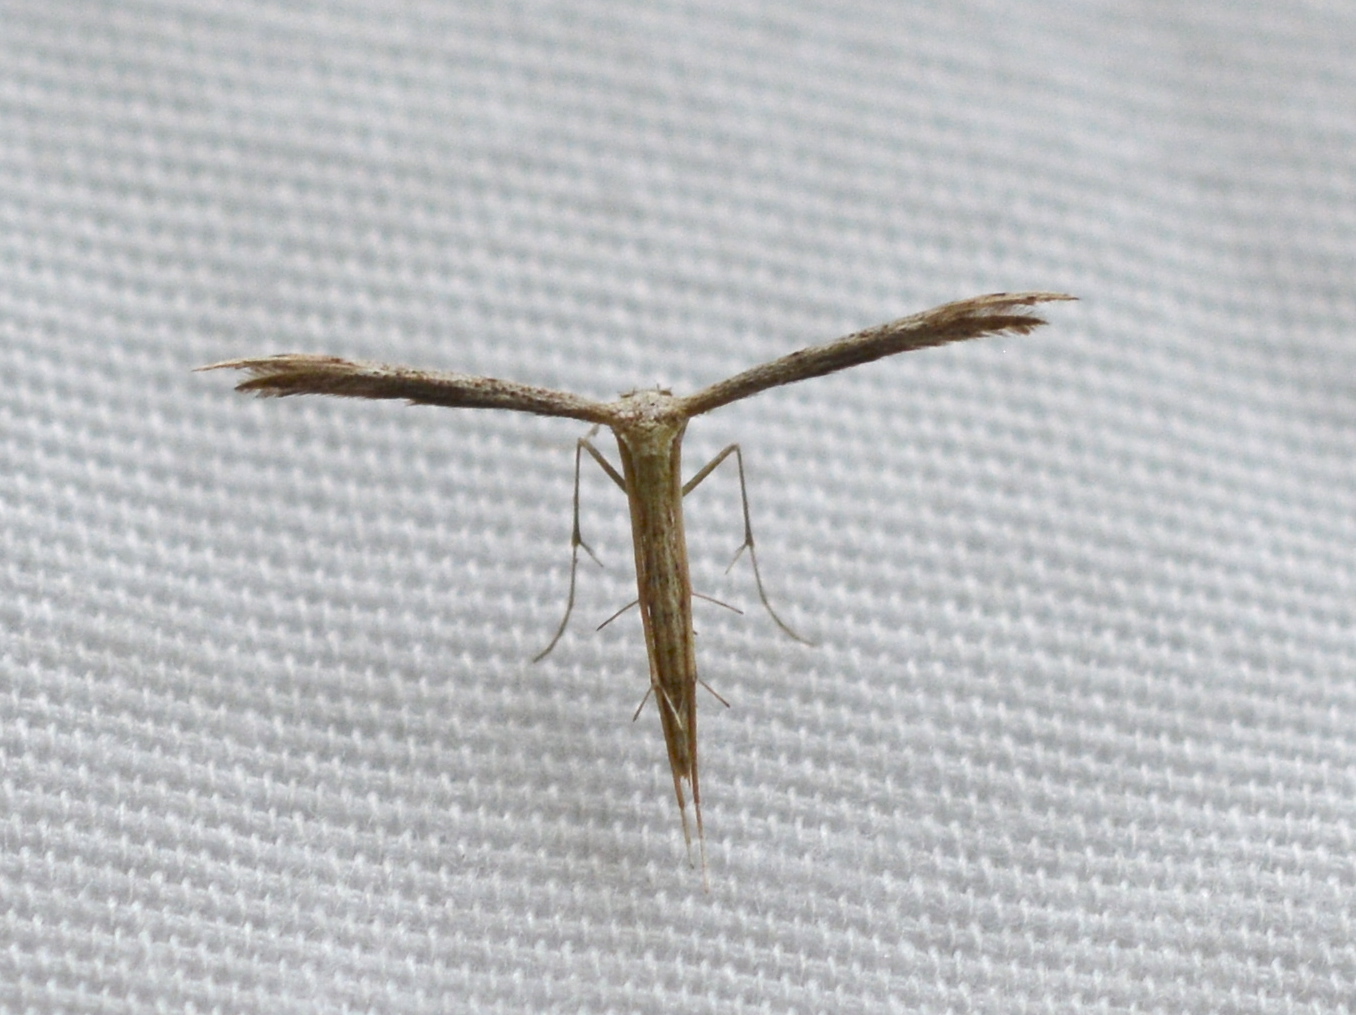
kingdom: Animalia
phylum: Arthropoda
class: Insecta
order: Lepidoptera
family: Pterophoridae
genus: Pselnophorus
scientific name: Pselnophorus belfragei
